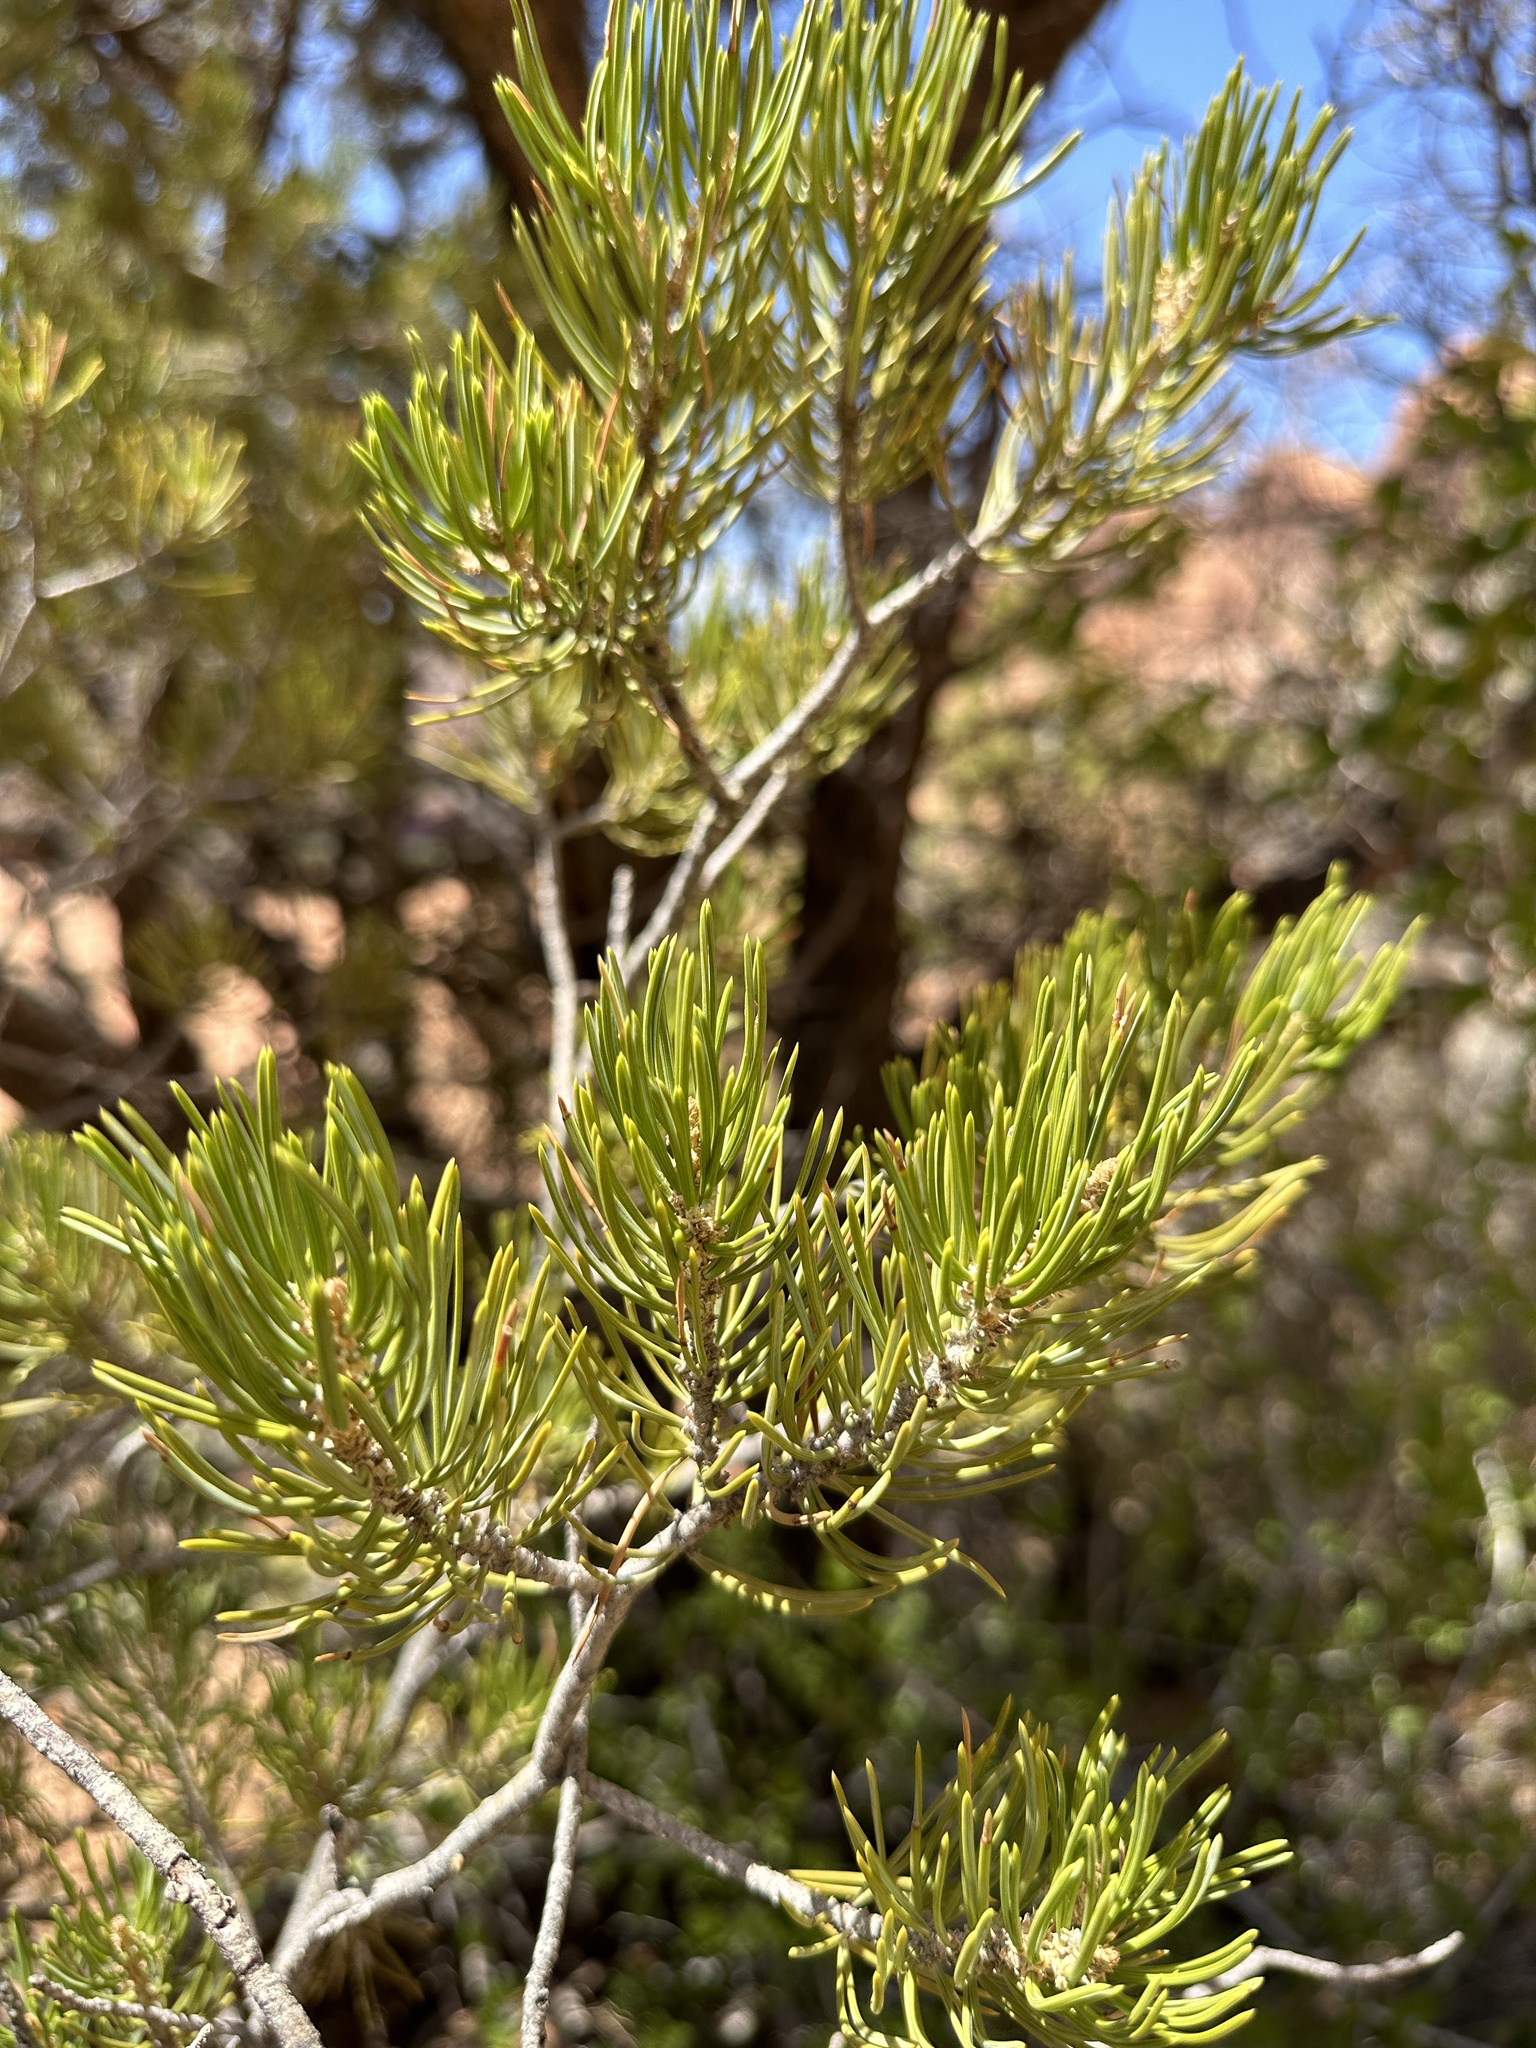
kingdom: Plantae
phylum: Tracheophyta
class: Pinopsida
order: Pinales
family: Pinaceae
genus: Pinus
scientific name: Pinus edulis
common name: Colorado pinyon
